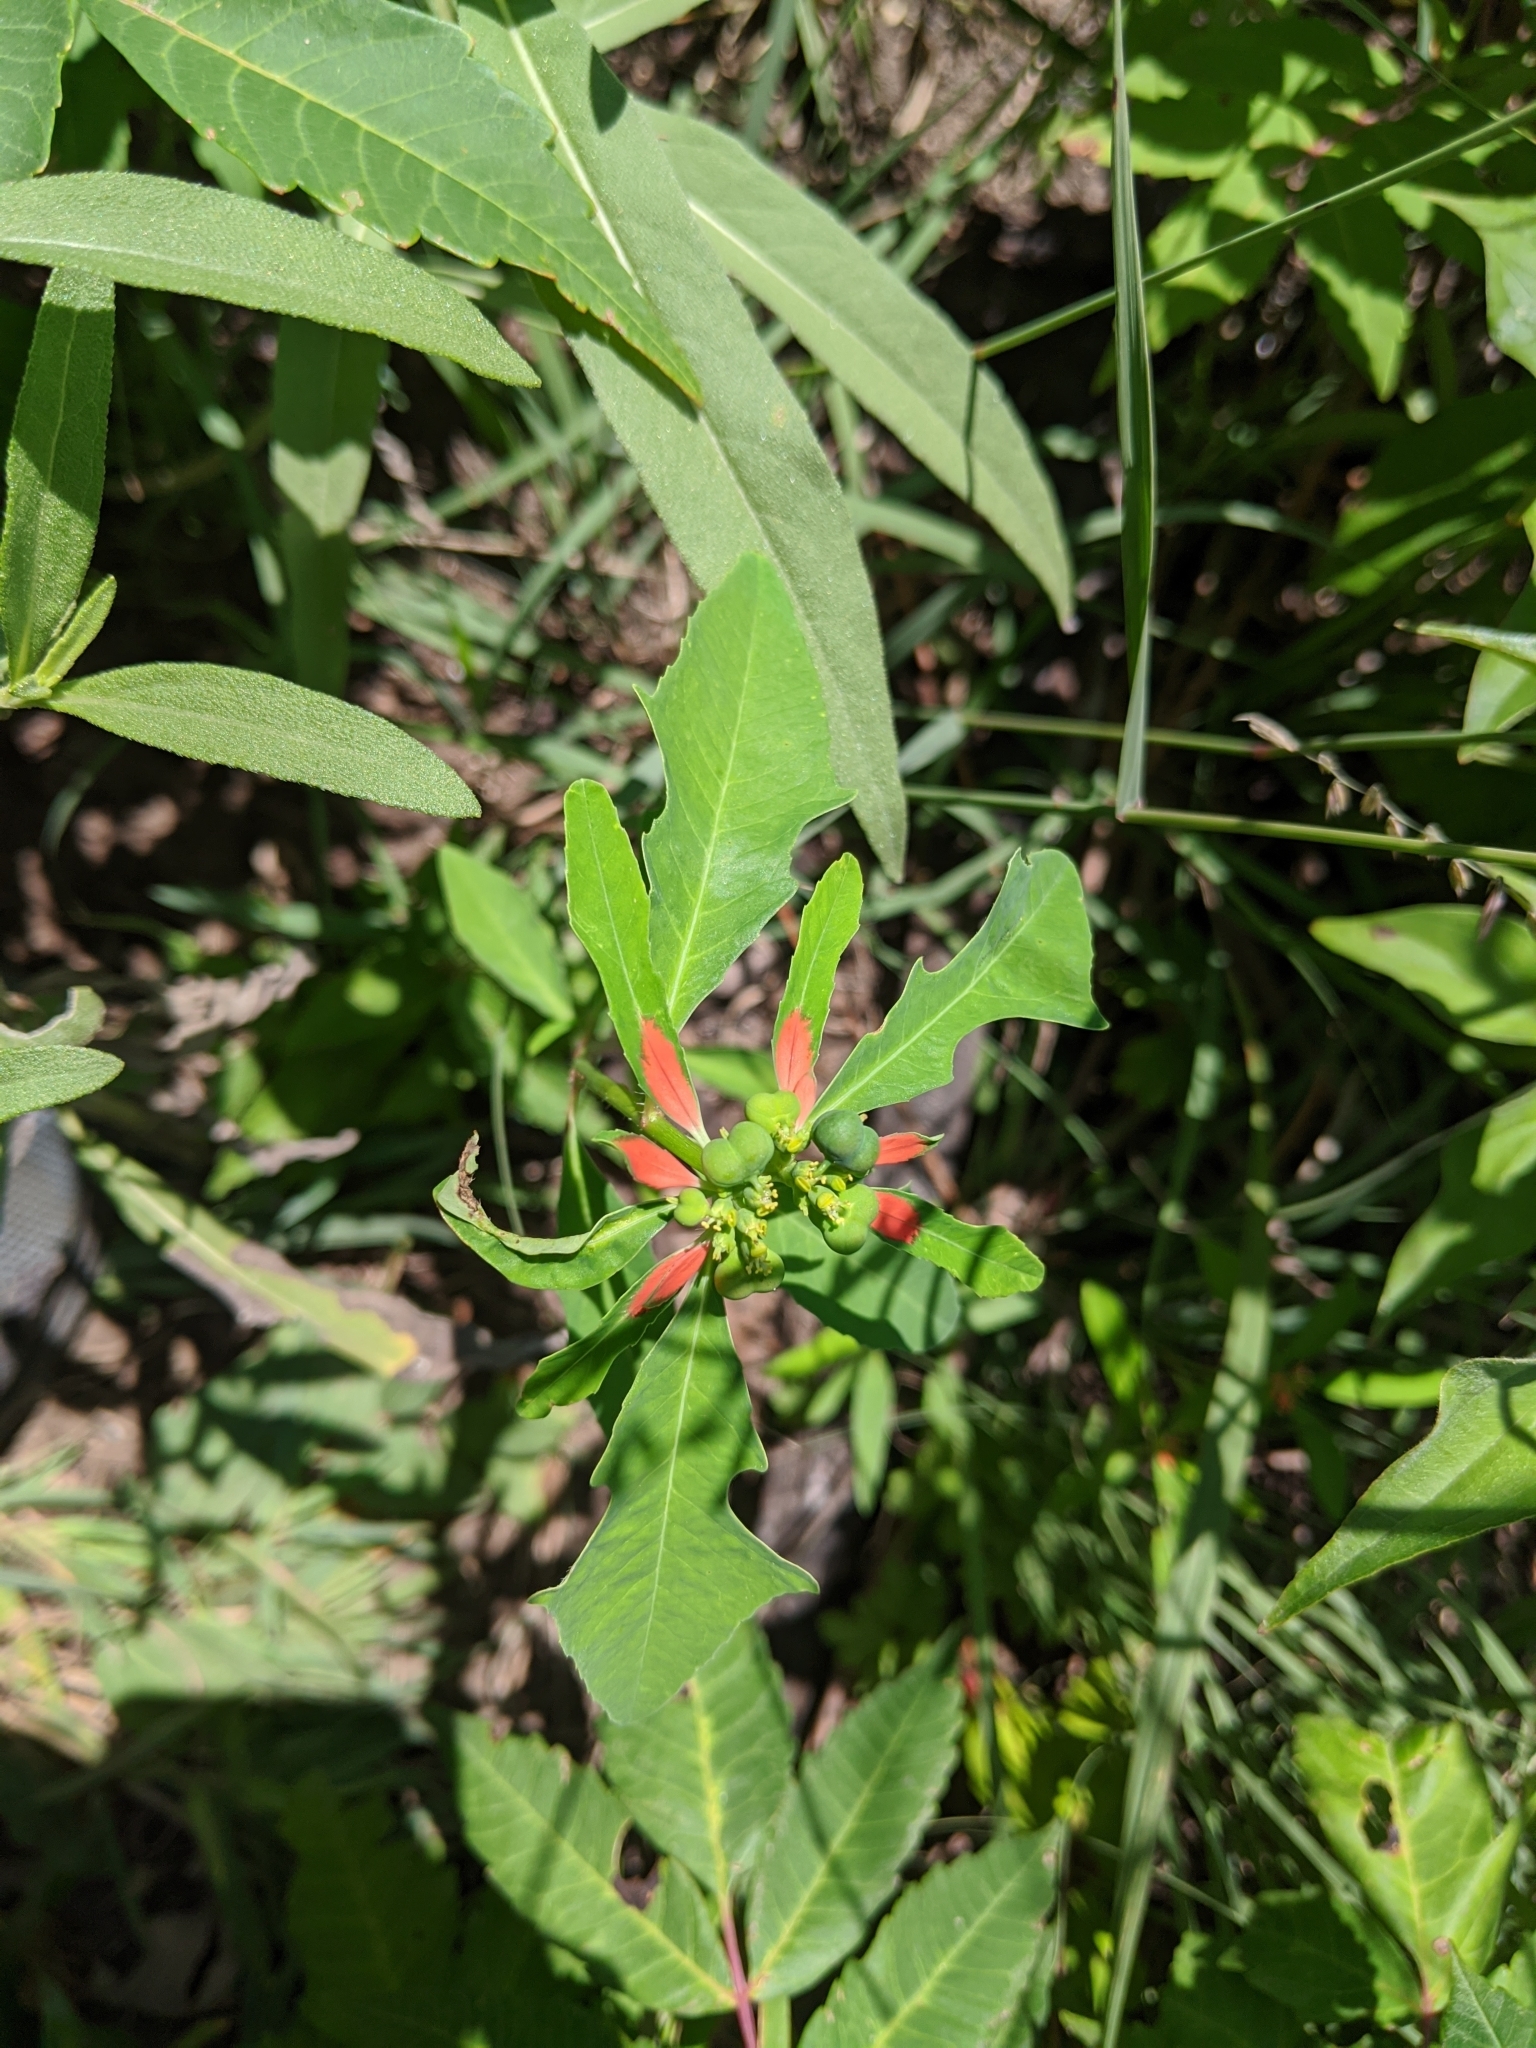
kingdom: Plantae
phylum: Tracheophyta
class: Magnoliopsida
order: Malpighiales
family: Euphorbiaceae
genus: Euphorbia
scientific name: Euphorbia heterophylla
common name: Mexican fireplant
